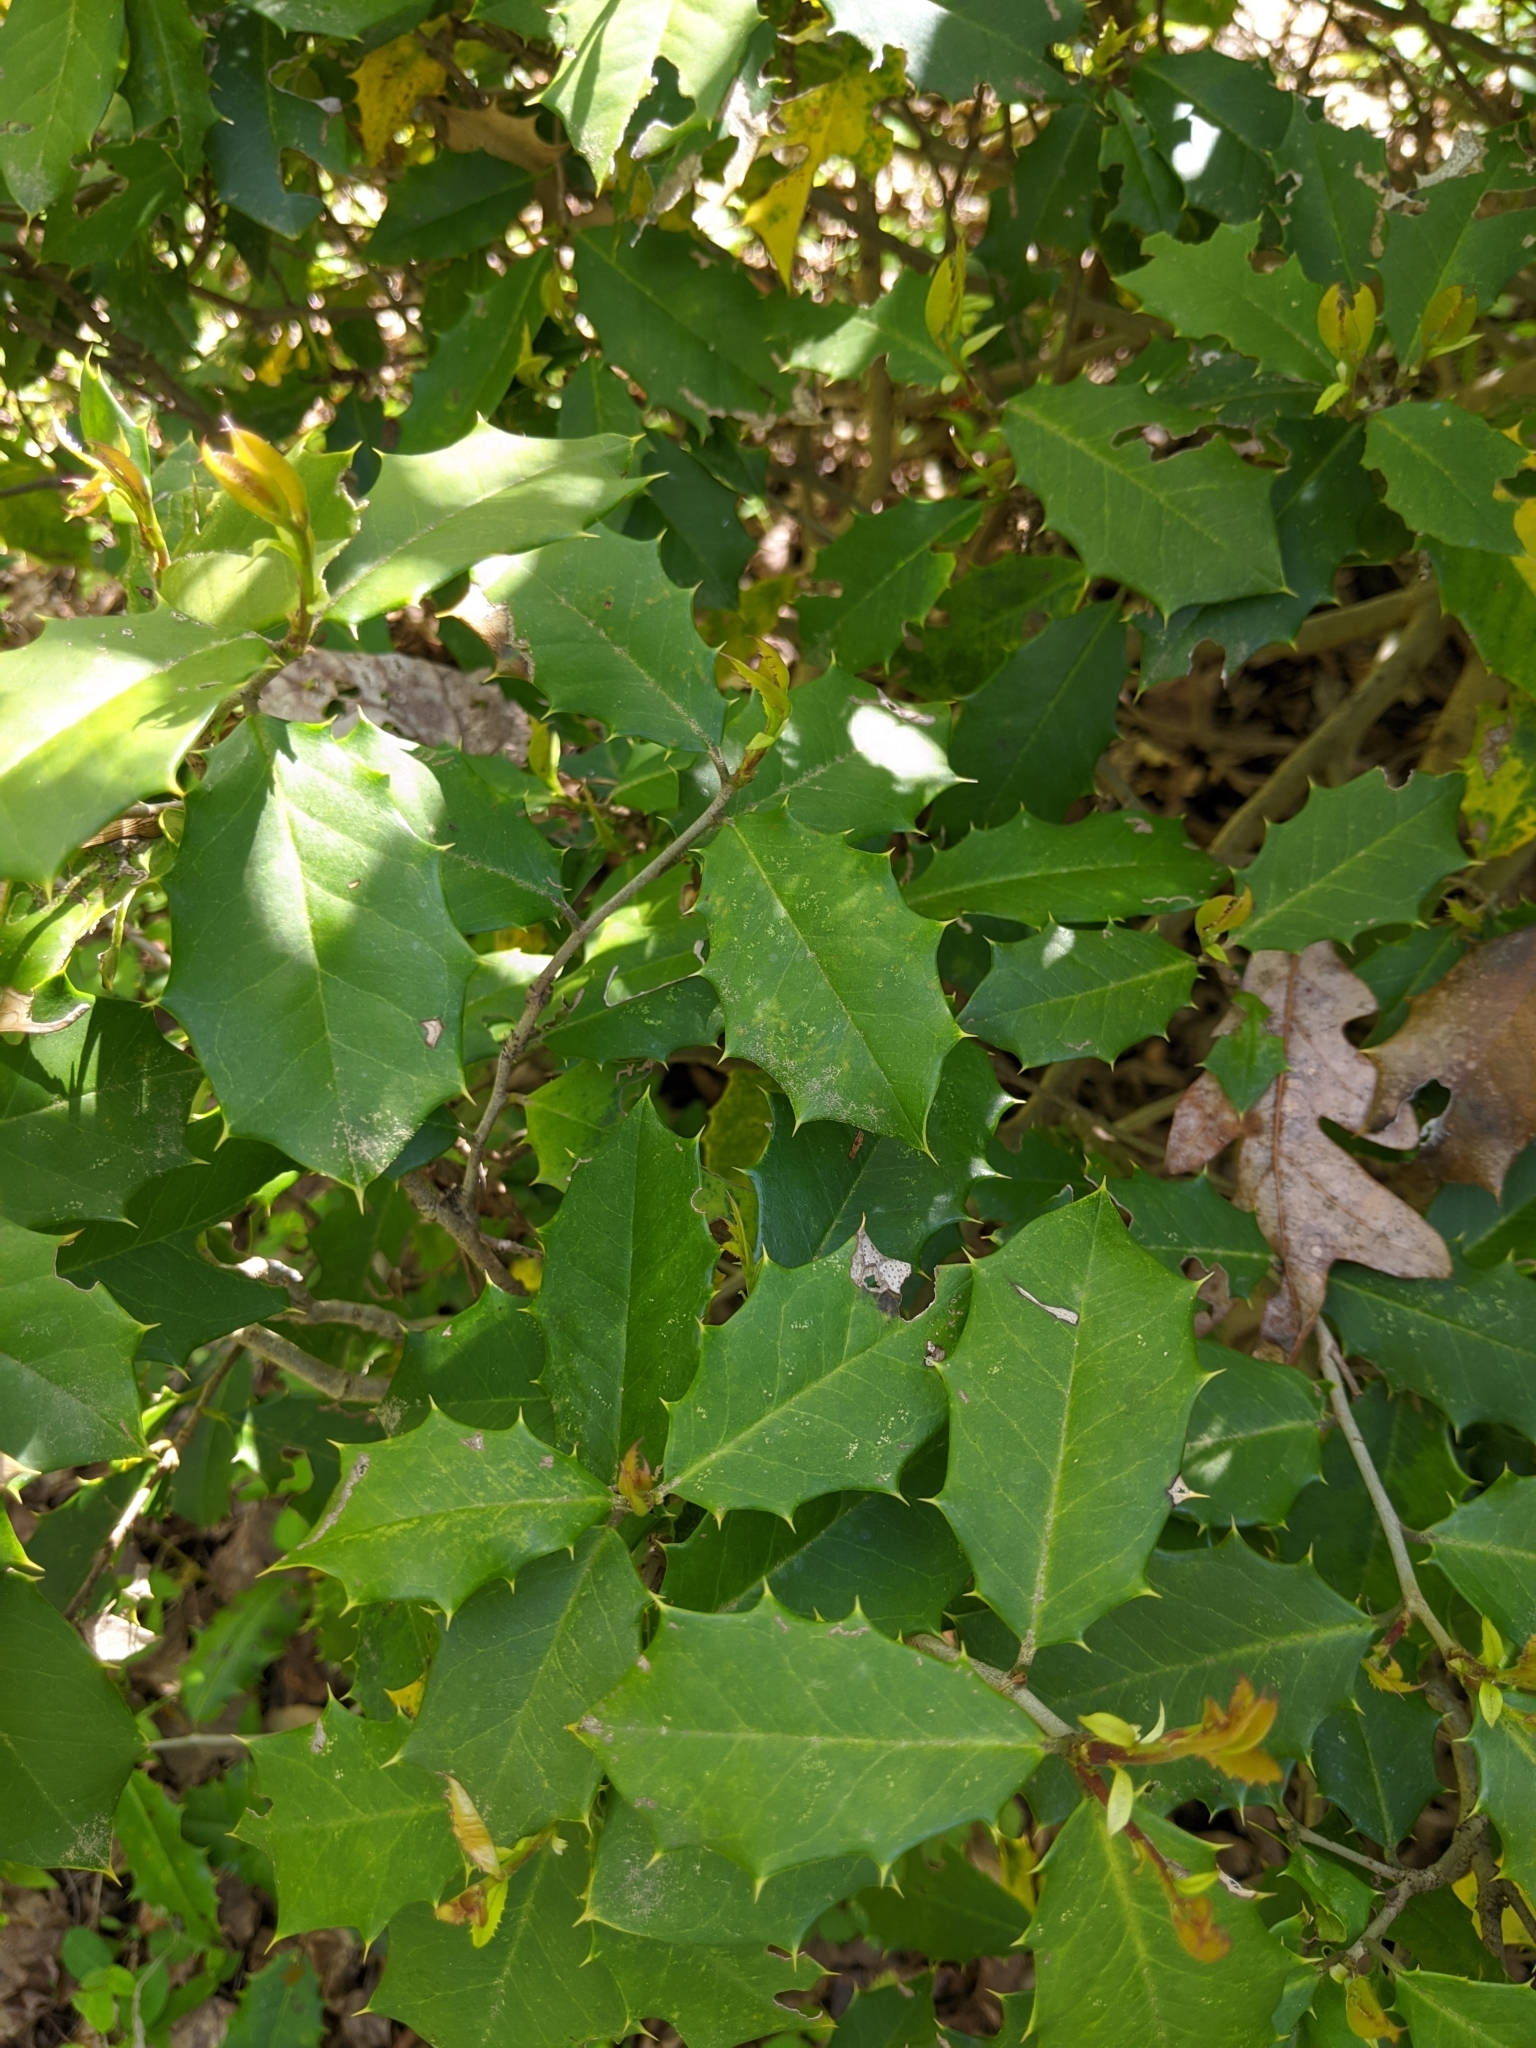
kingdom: Plantae
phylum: Tracheophyta
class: Magnoliopsida
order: Aquifoliales
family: Aquifoliaceae
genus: Ilex
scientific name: Ilex opaca
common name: American holly
